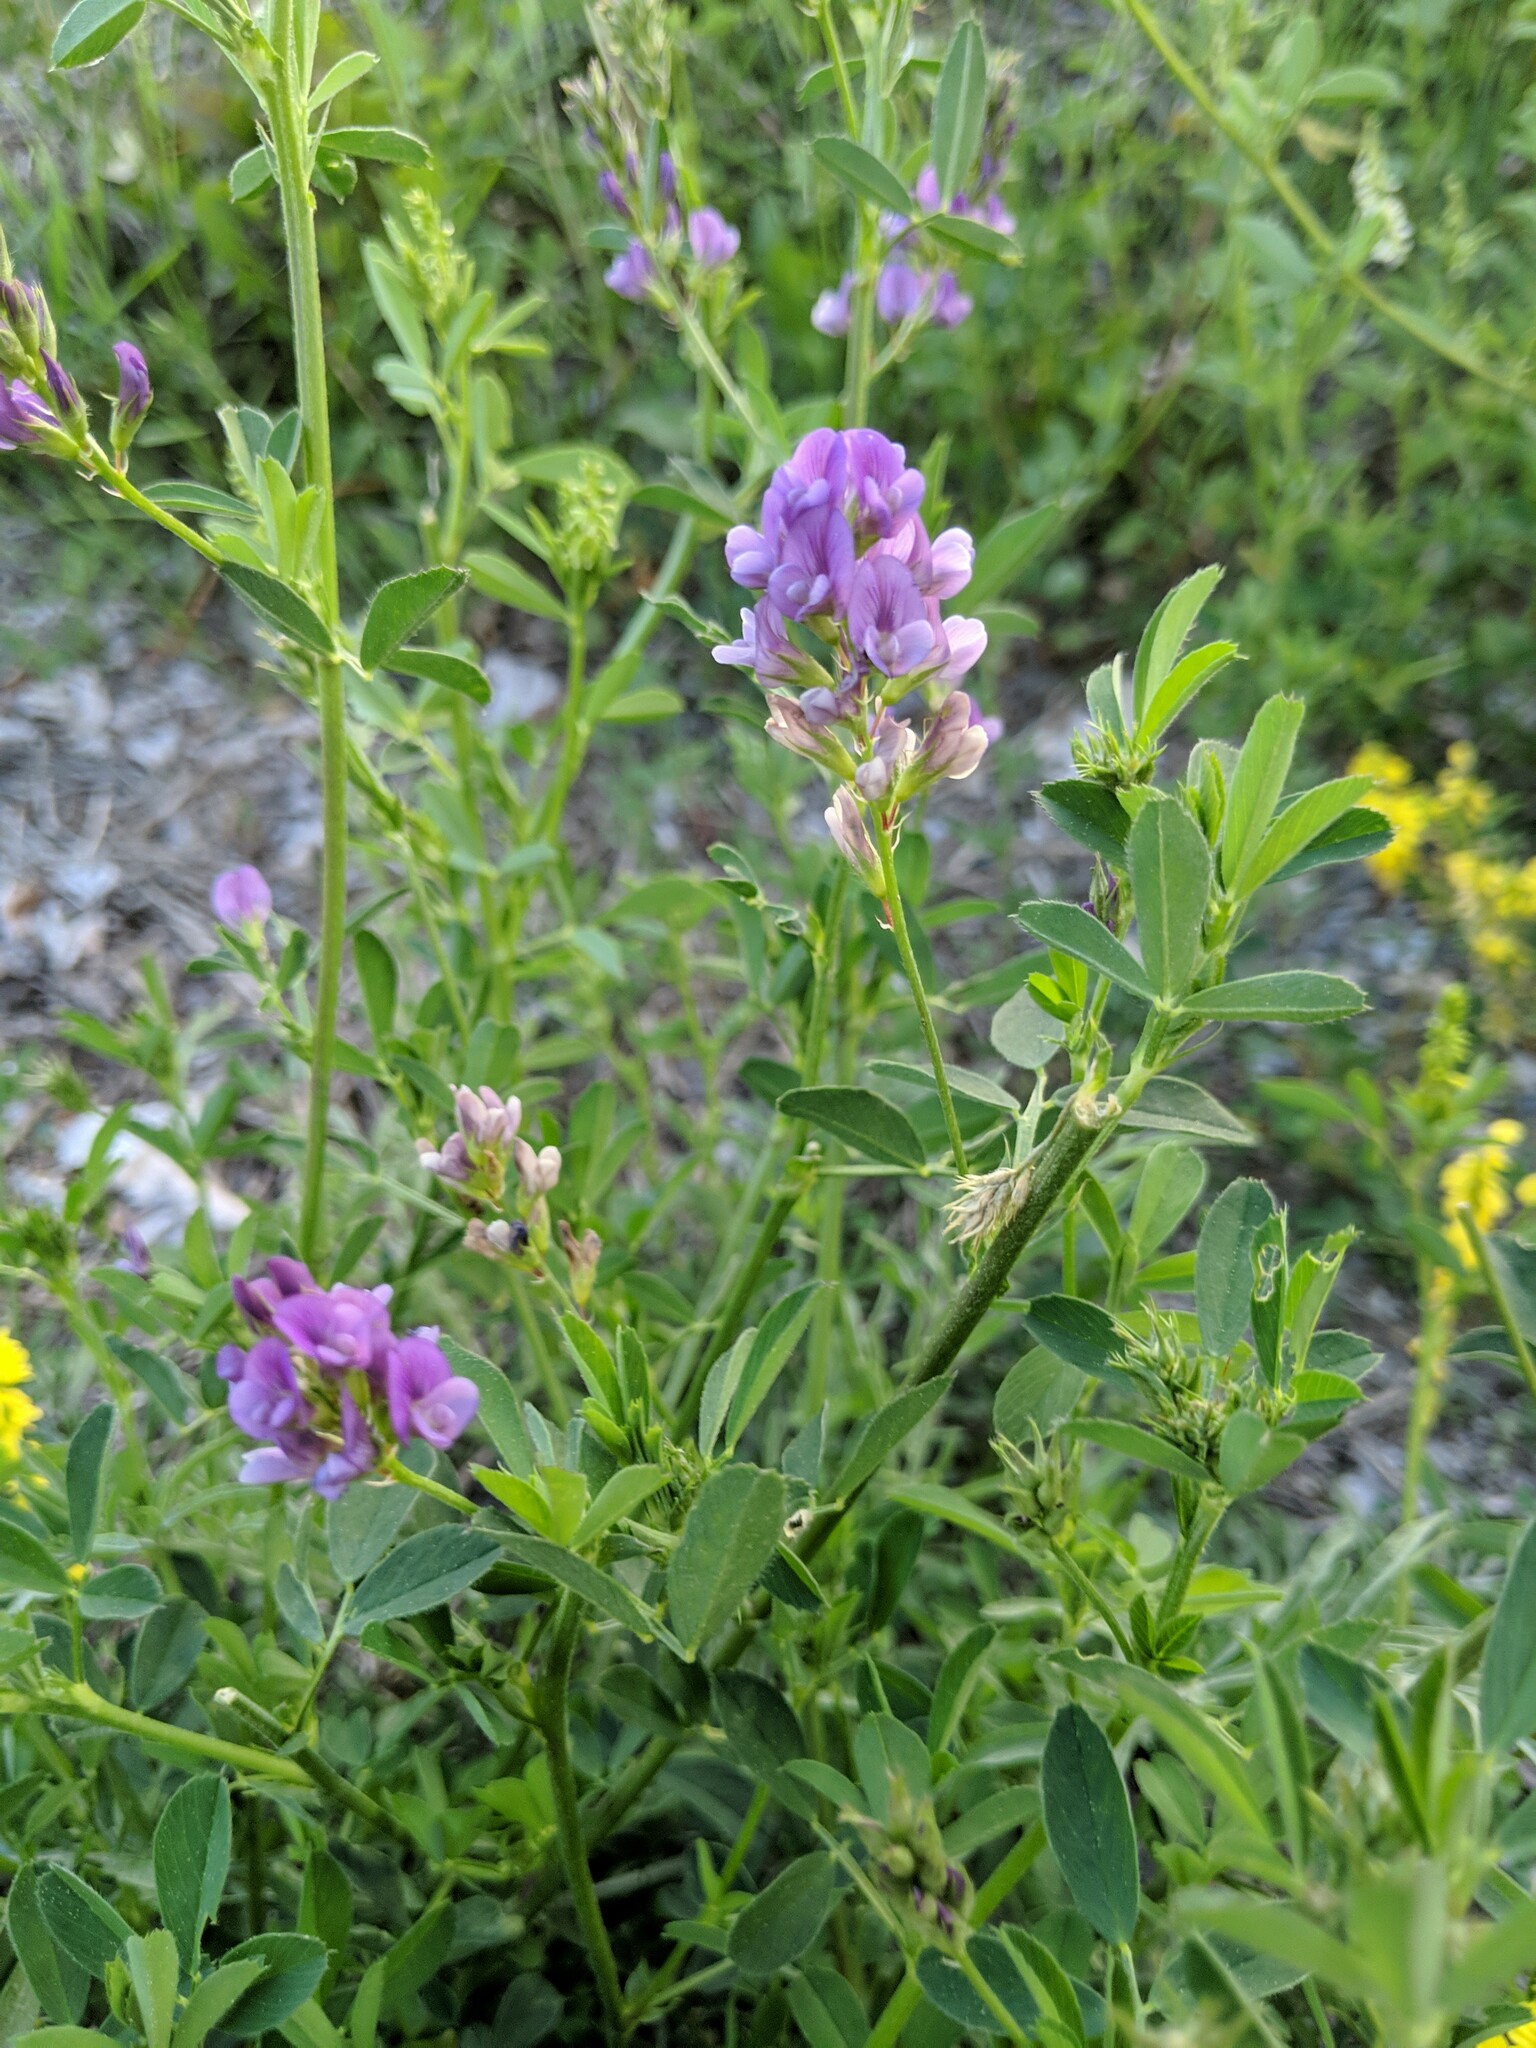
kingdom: Plantae
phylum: Tracheophyta
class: Magnoliopsida
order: Fabales
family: Fabaceae
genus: Medicago
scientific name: Medicago sativa
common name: Alfalfa
